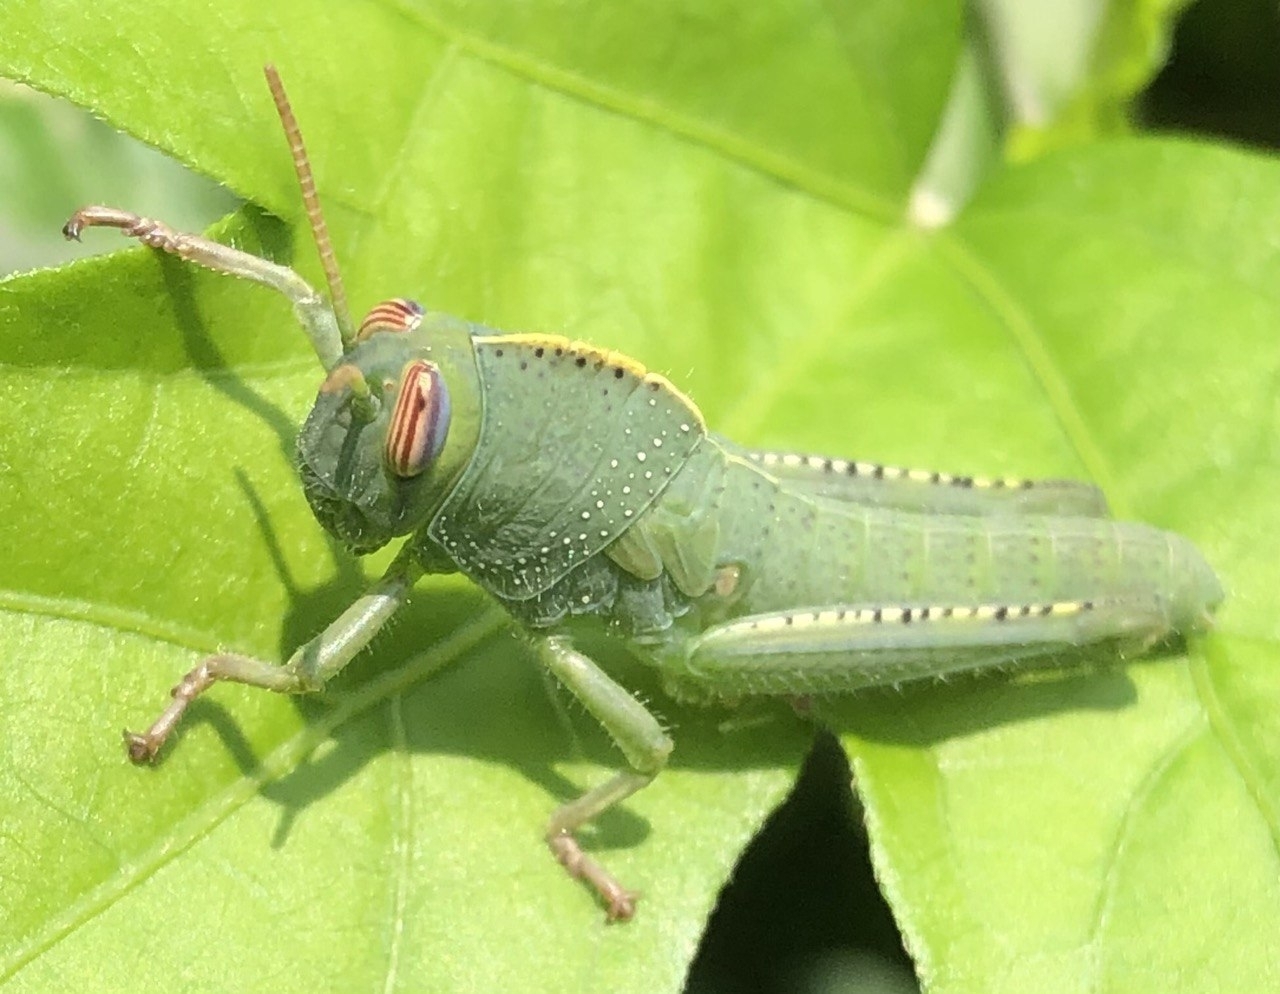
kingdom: Animalia
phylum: Arthropoda
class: Insecta
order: Orthoptera
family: Acrididae
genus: Anacridium
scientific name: Anacridium aegyptium
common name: Egyptian grasshopper
